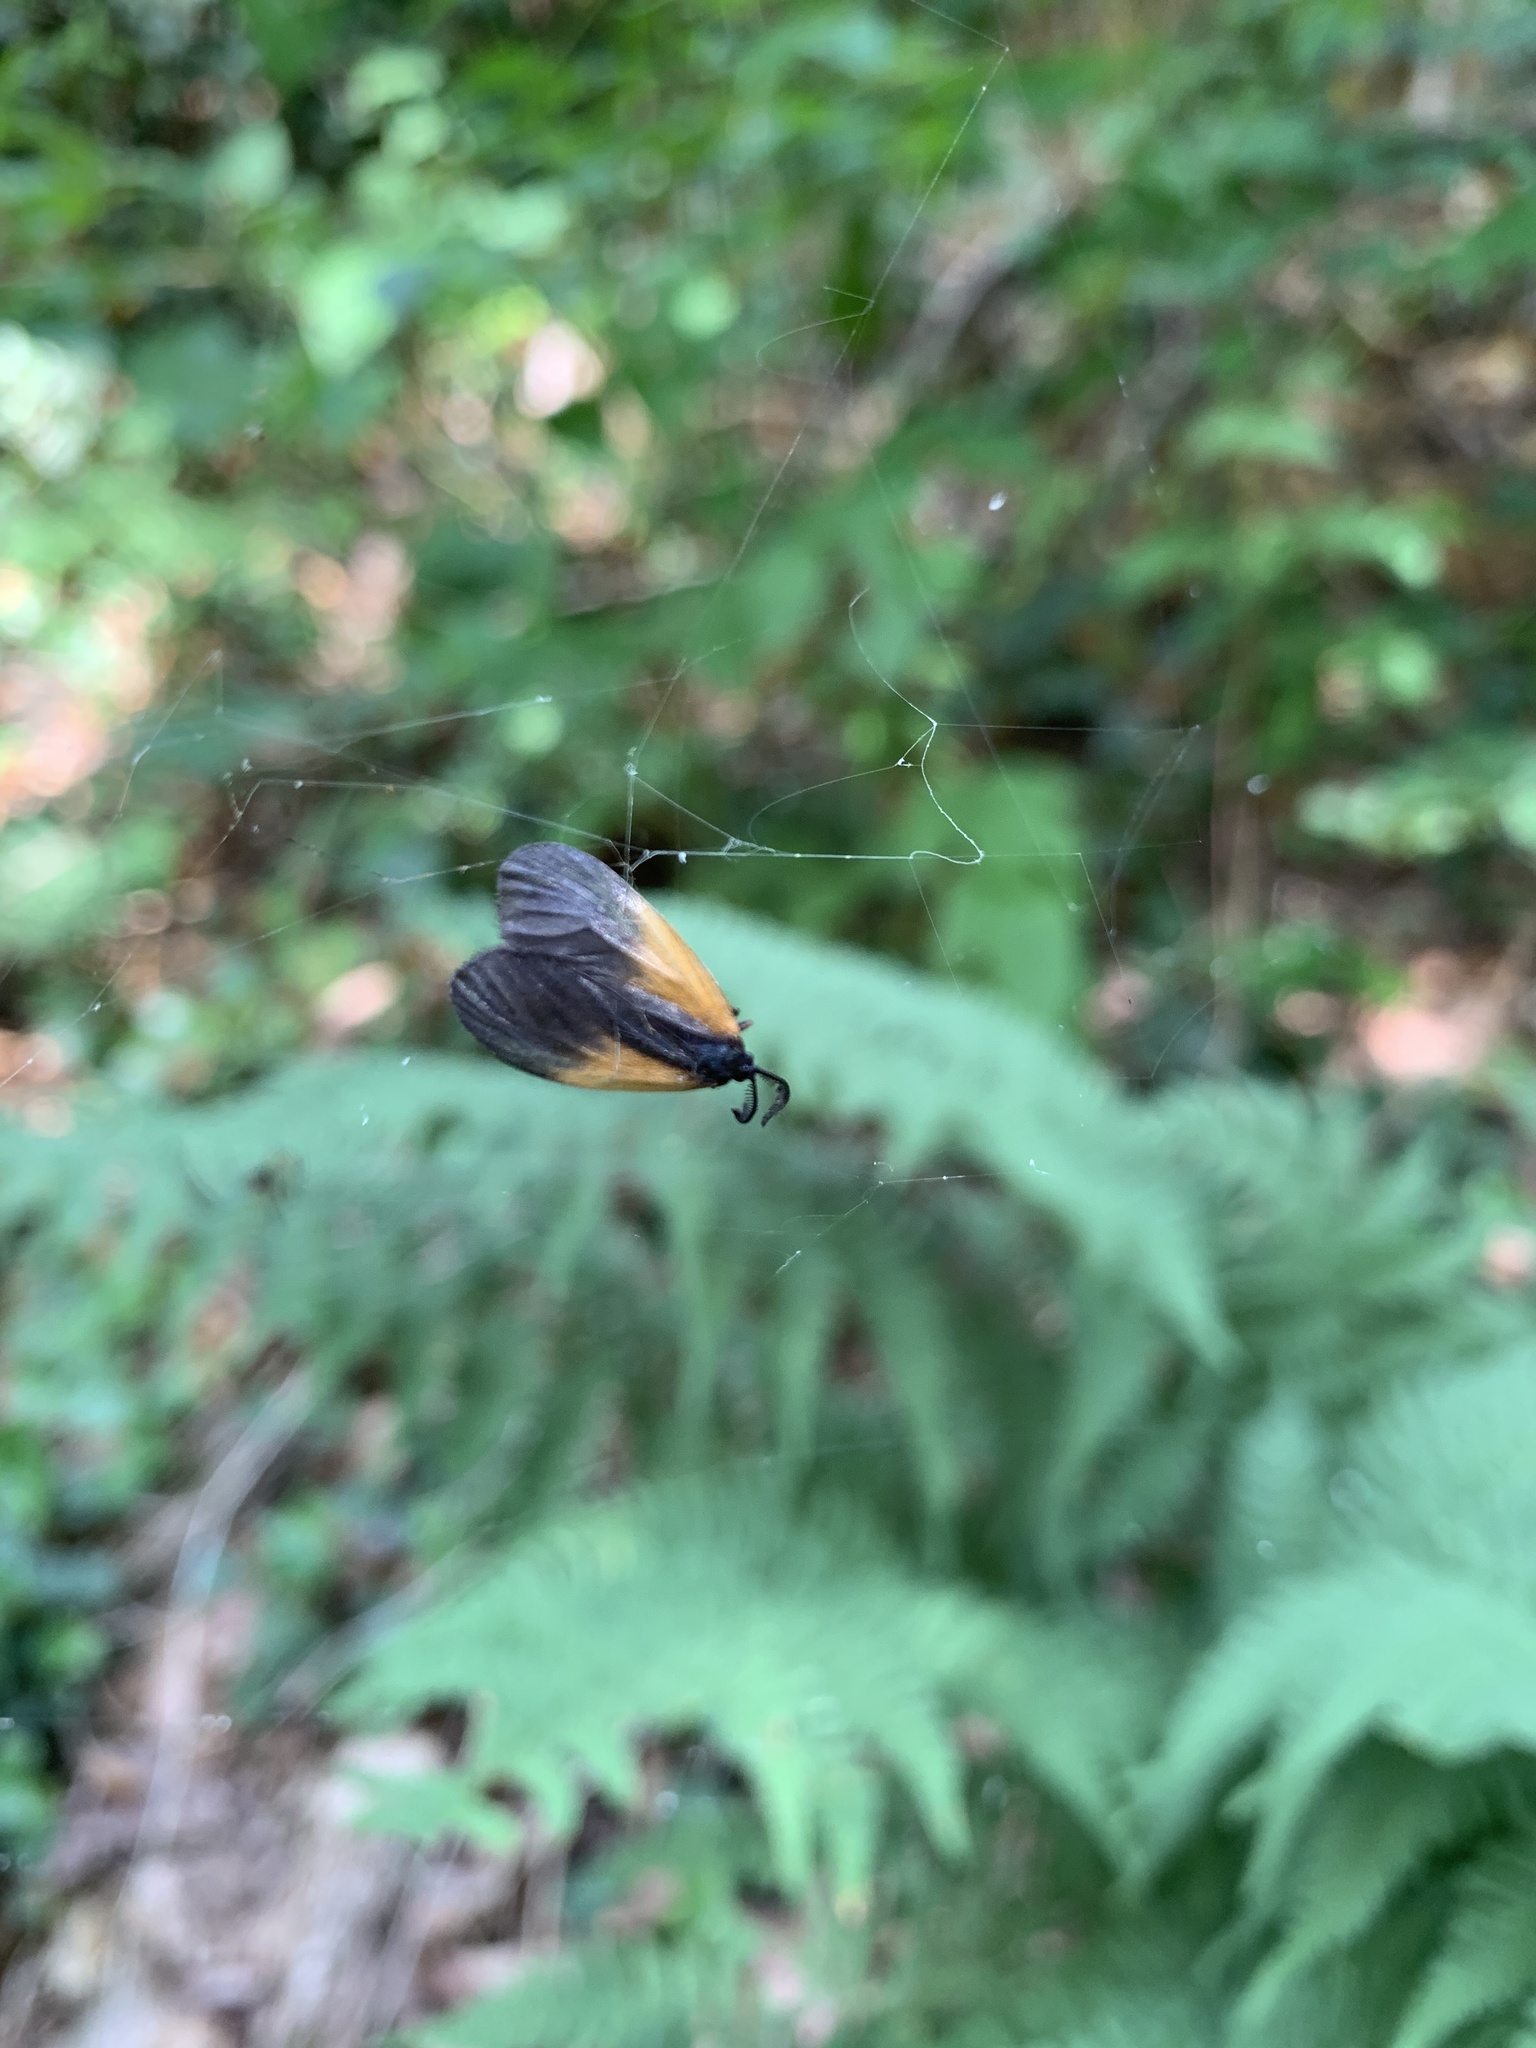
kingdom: Animalia
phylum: Arthropoda
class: Insecta
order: Lepidoptera
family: Zygaenidae
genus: Malthaca
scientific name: Malthaca dimidiata
